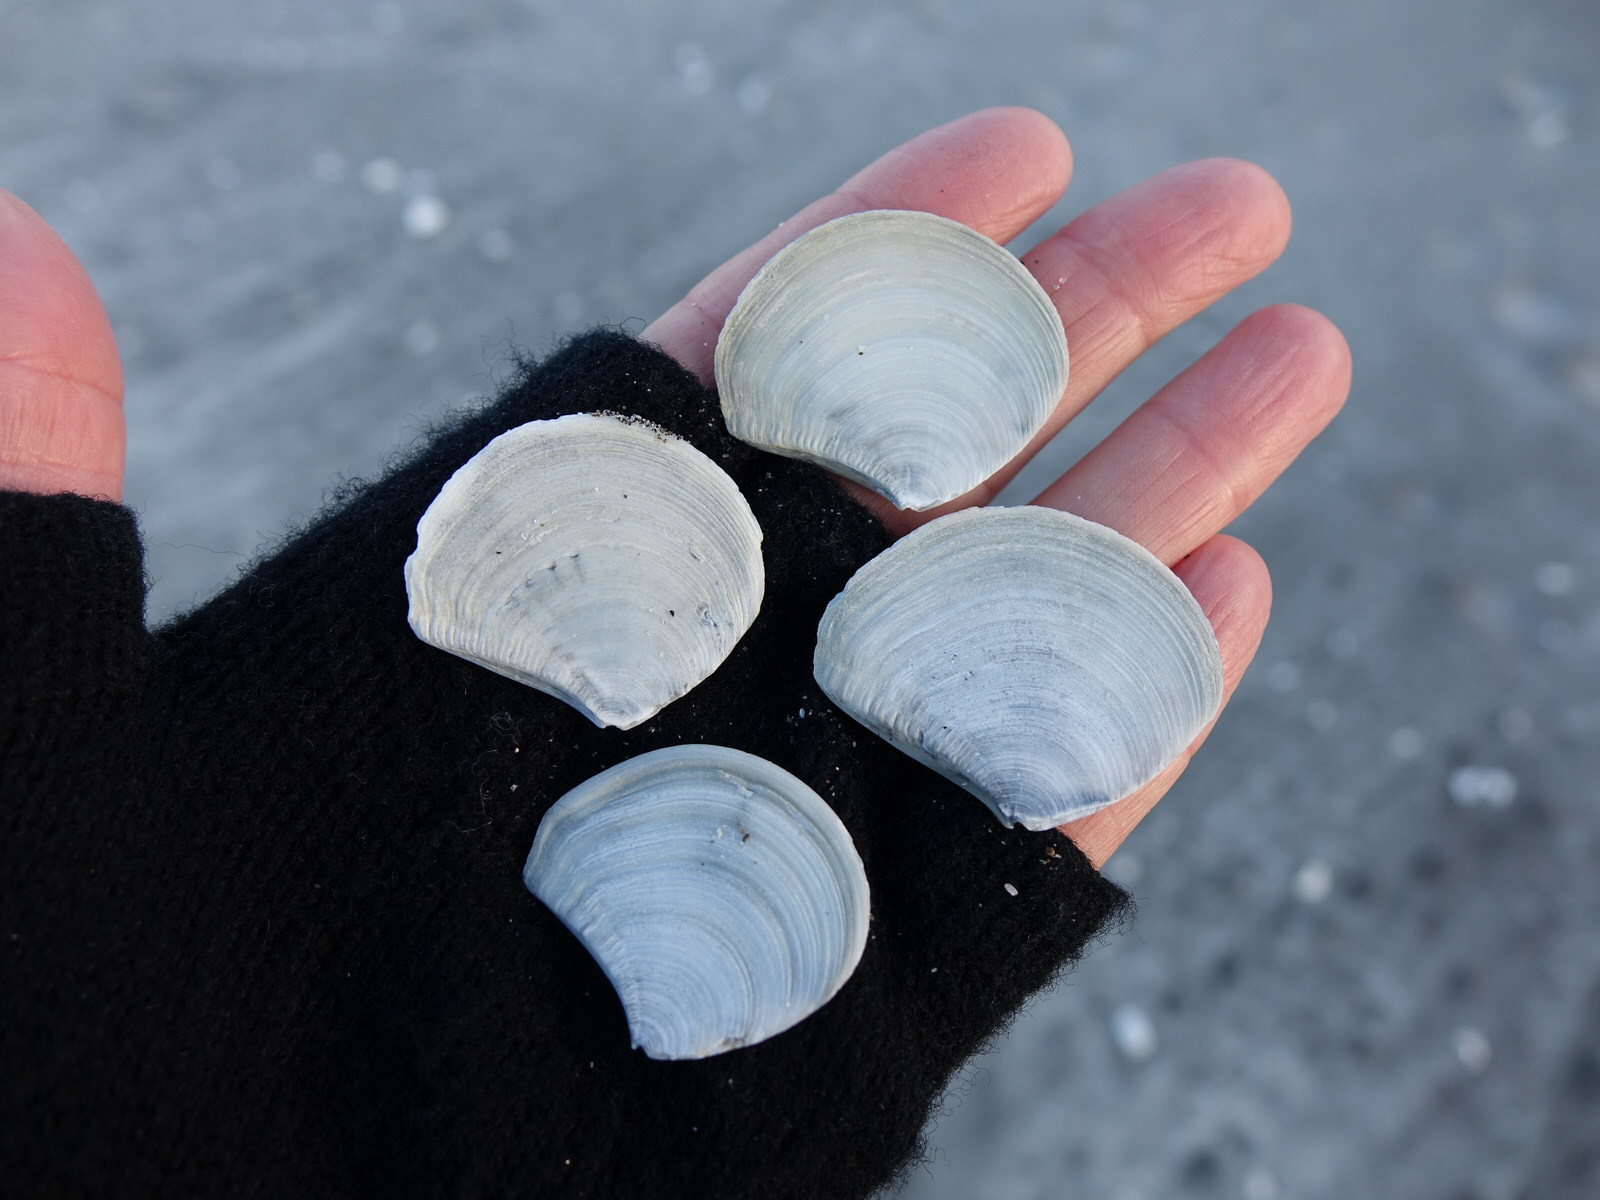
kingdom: Animalia
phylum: Mollusca
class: Bivalvia
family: Myochamidae
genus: Myadora
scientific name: Myadora striata
